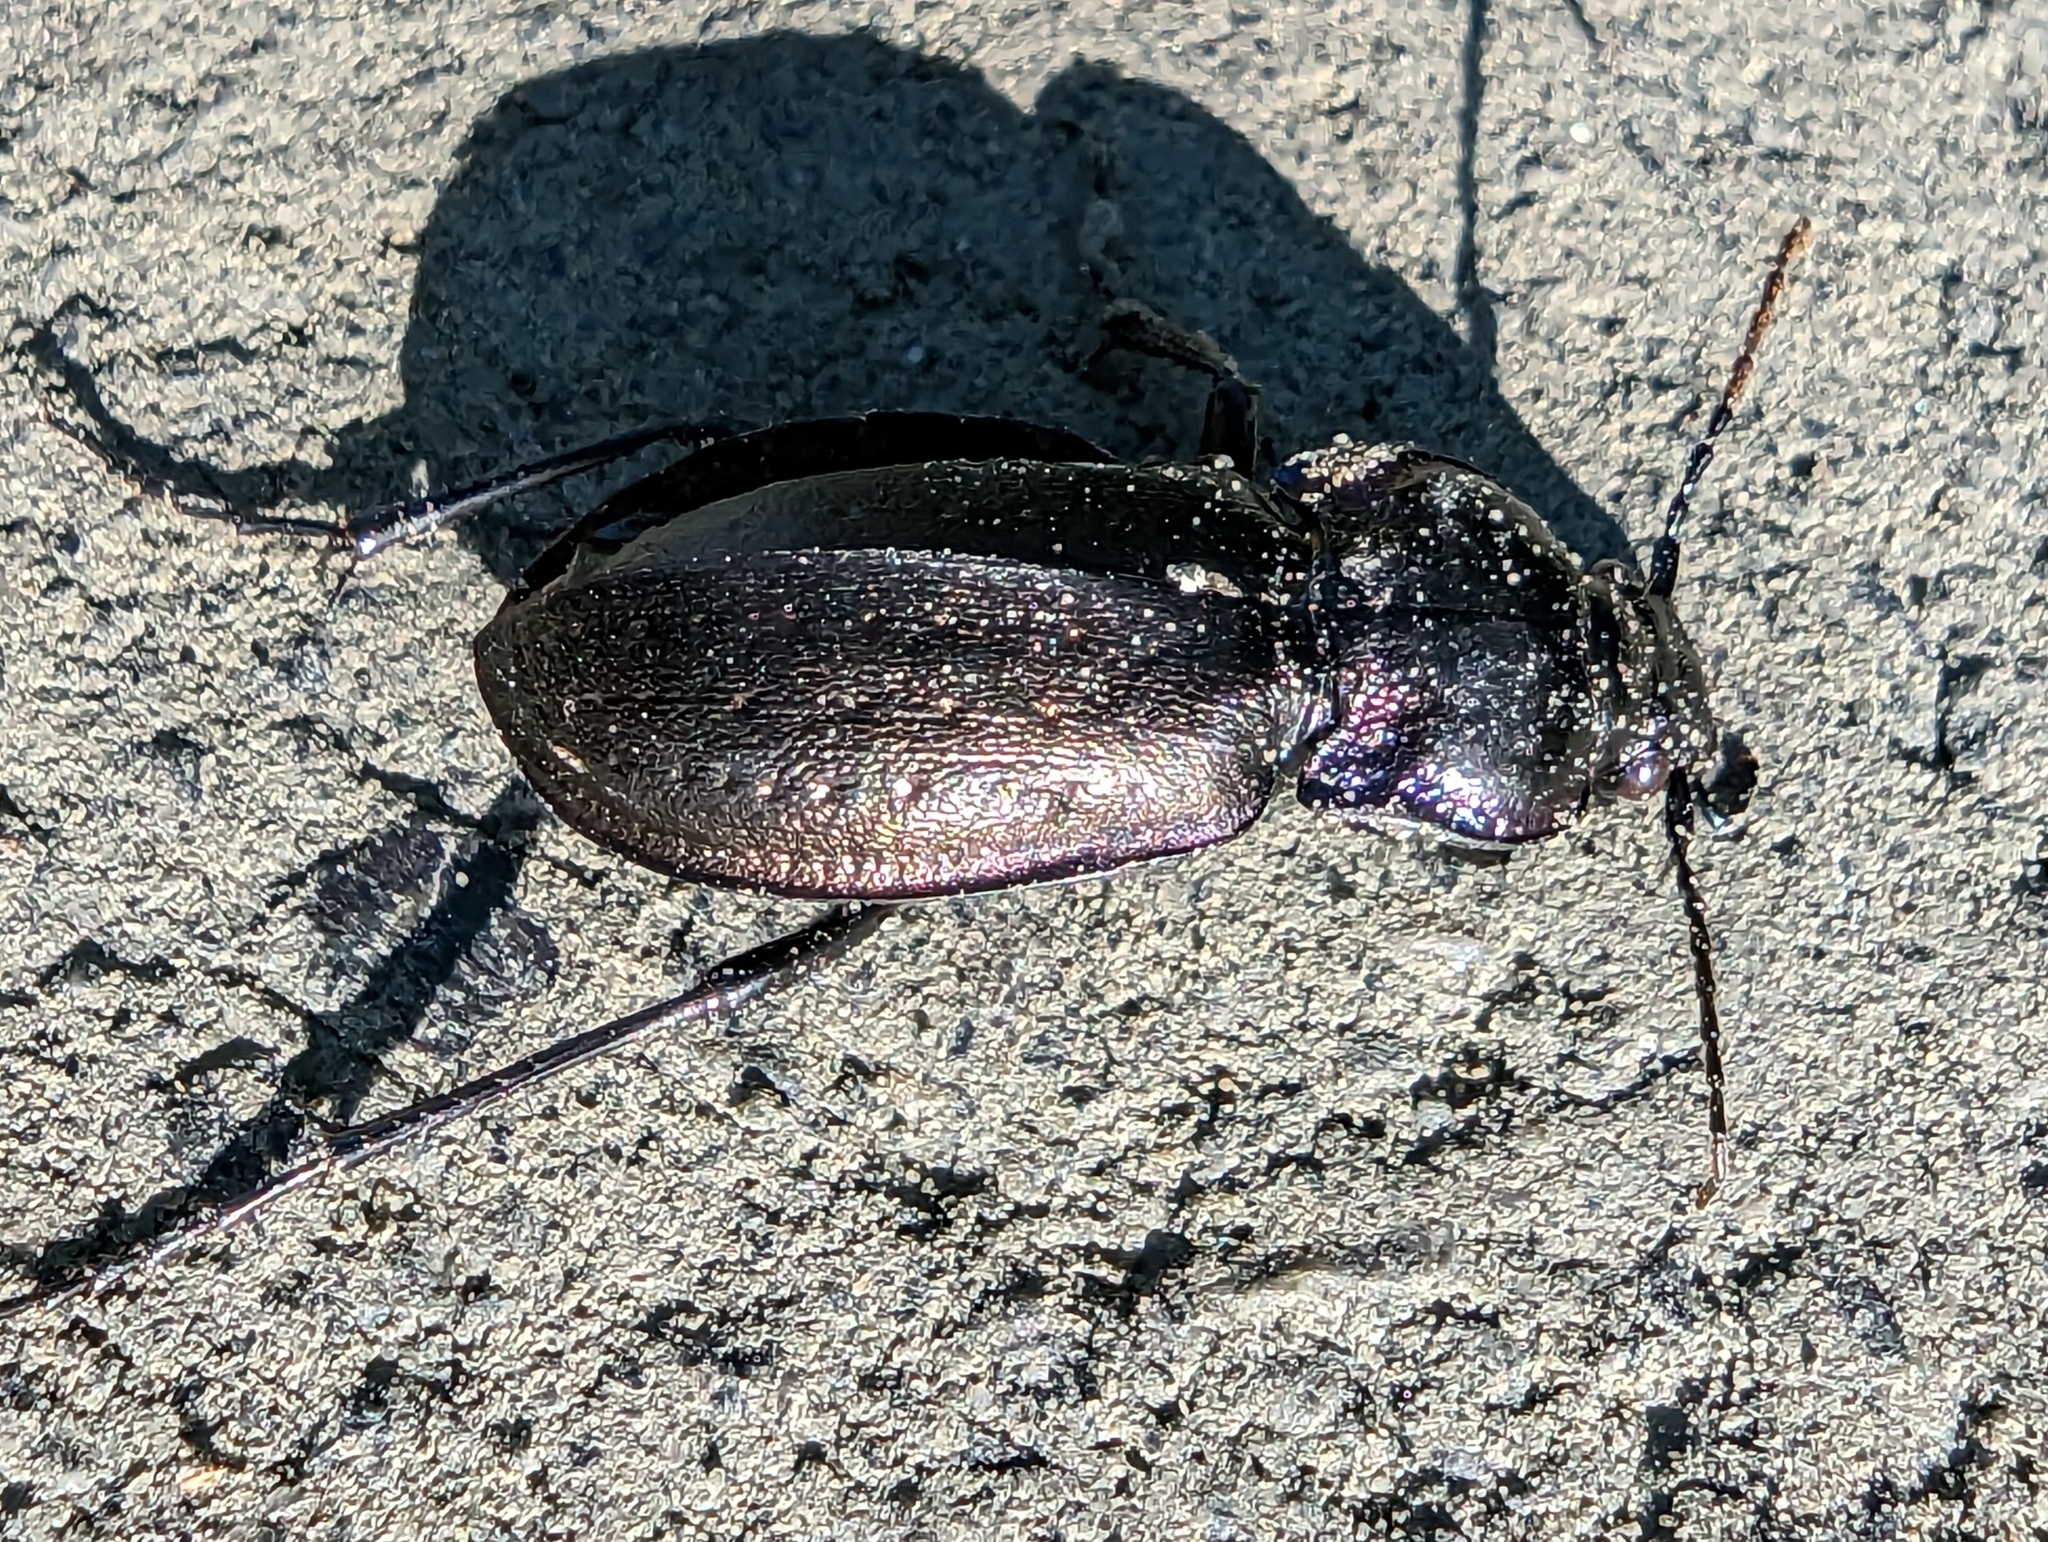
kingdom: Animalia
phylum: Arthropoda
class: Insecta
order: Coleoptera
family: Carabidae
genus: Carabus
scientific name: Carabus nemoralis
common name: European ground beetle
